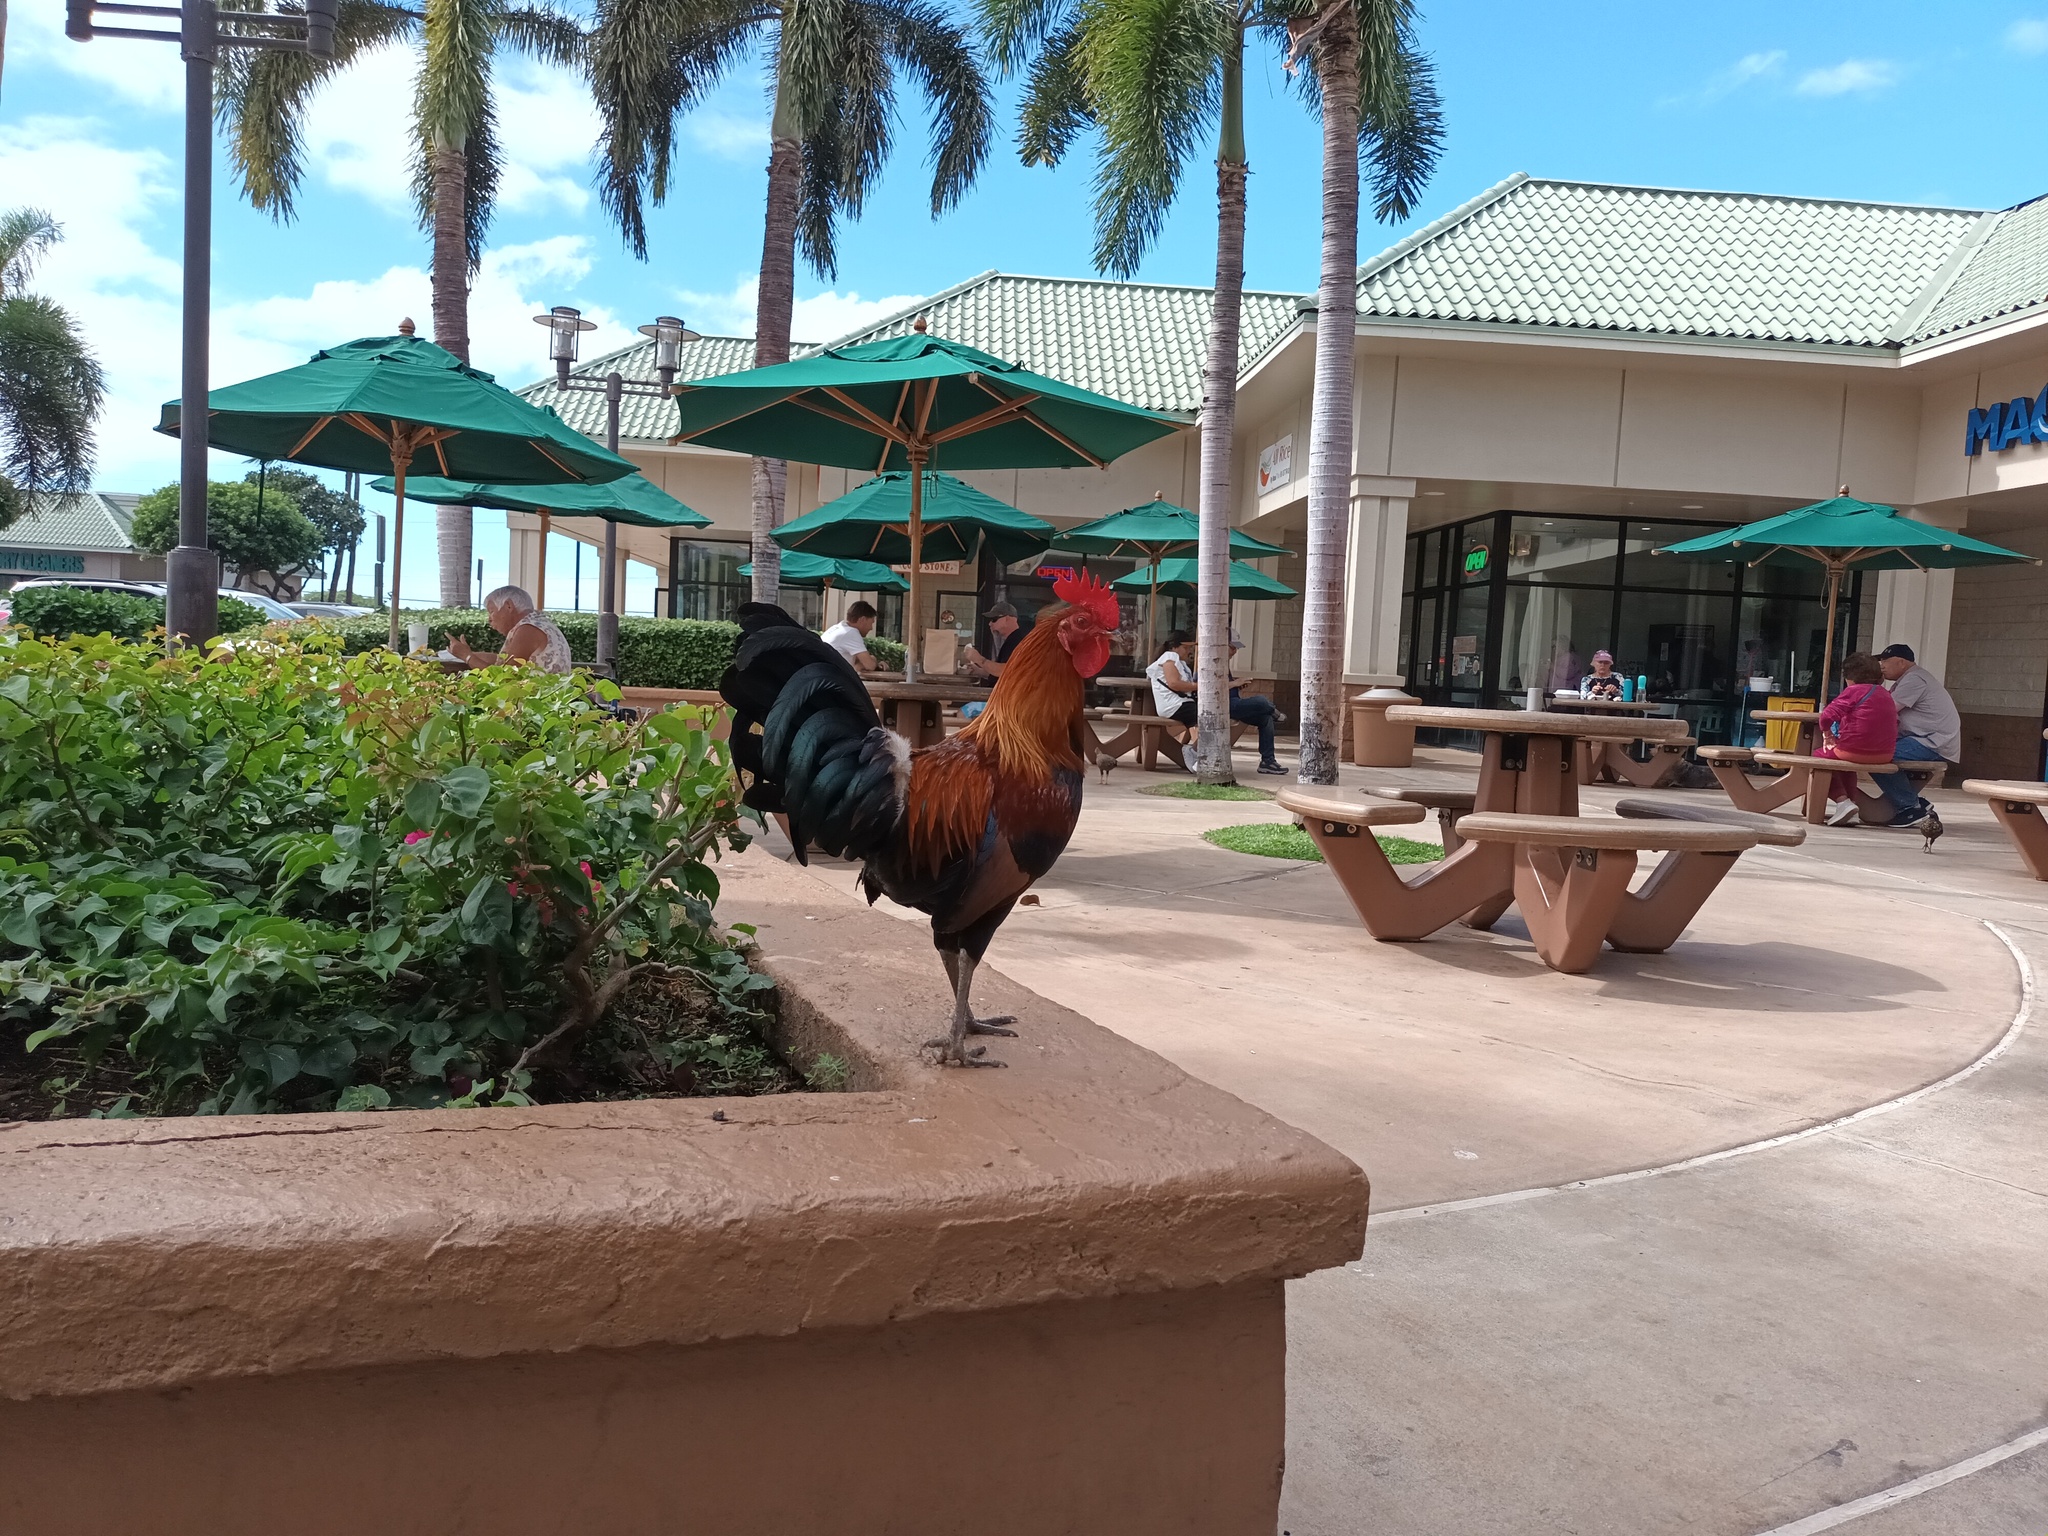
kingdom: Animalia
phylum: Chordata
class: Aves
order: Galliformes
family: Phasianidae
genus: Gallus
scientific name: Gallus gallus
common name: Red junglefowl
